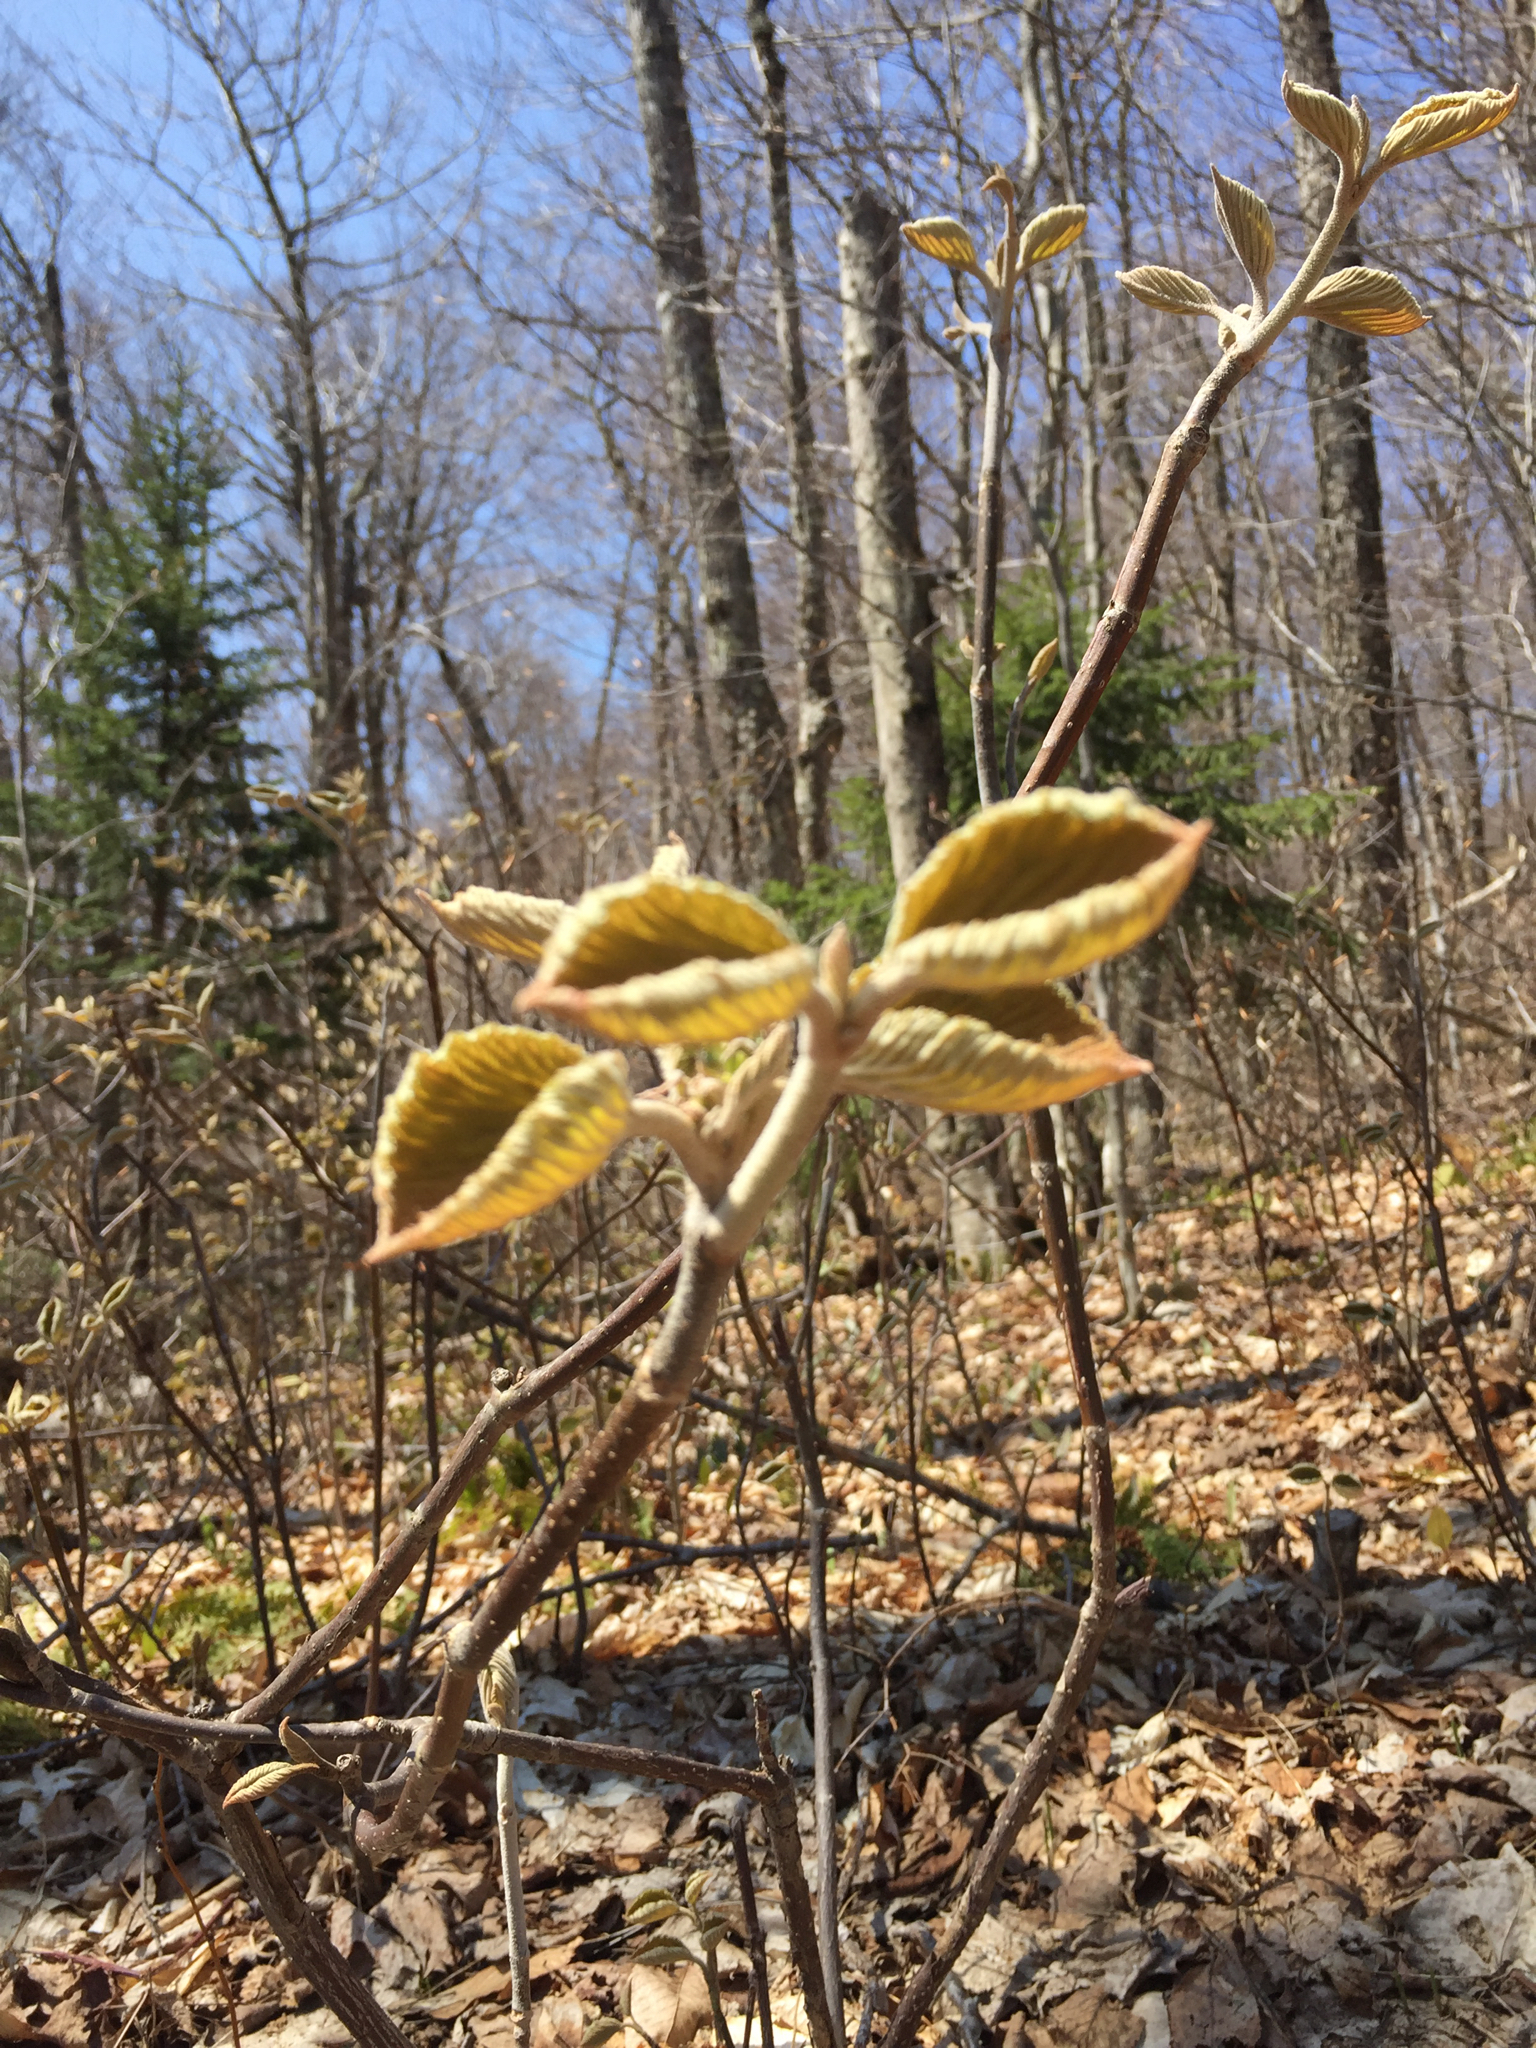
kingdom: Plantae
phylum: Tracheophyta
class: Magnoliopsida
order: Dipsacales
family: Viburnaceae
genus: Viburnum
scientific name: Viburnum lantanoides
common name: Hobblebush
